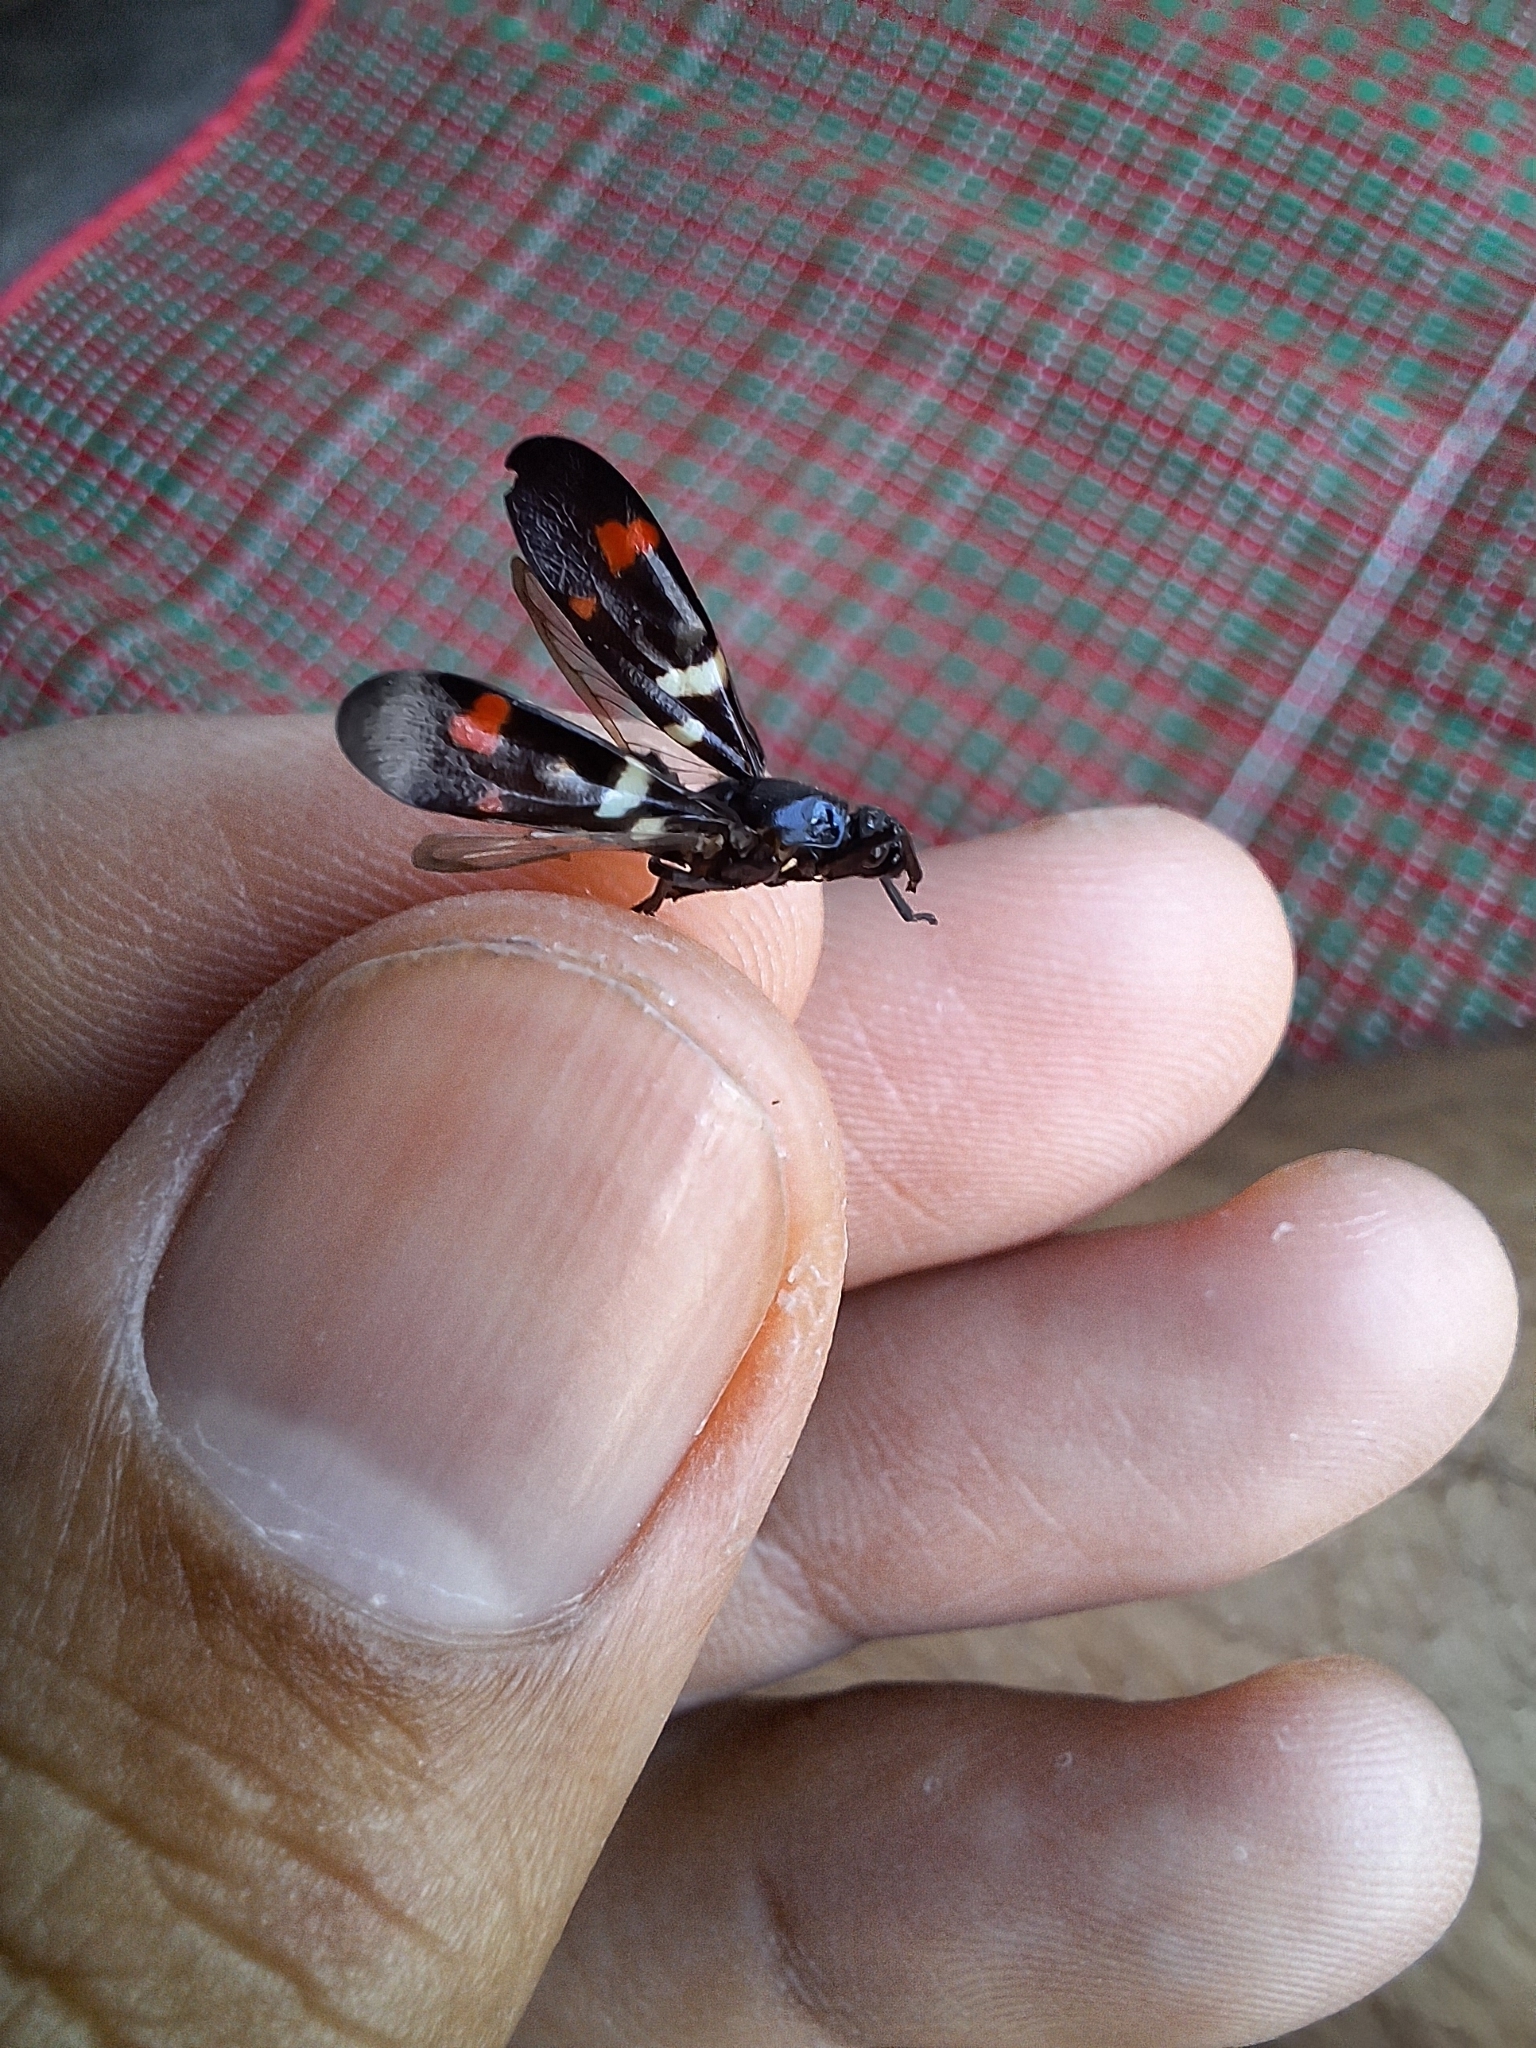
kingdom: Animalia
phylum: Arthropoda
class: Insecta
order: Hemiptera
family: Cercopidae
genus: Callitettix
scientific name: Callitettix versicolor
